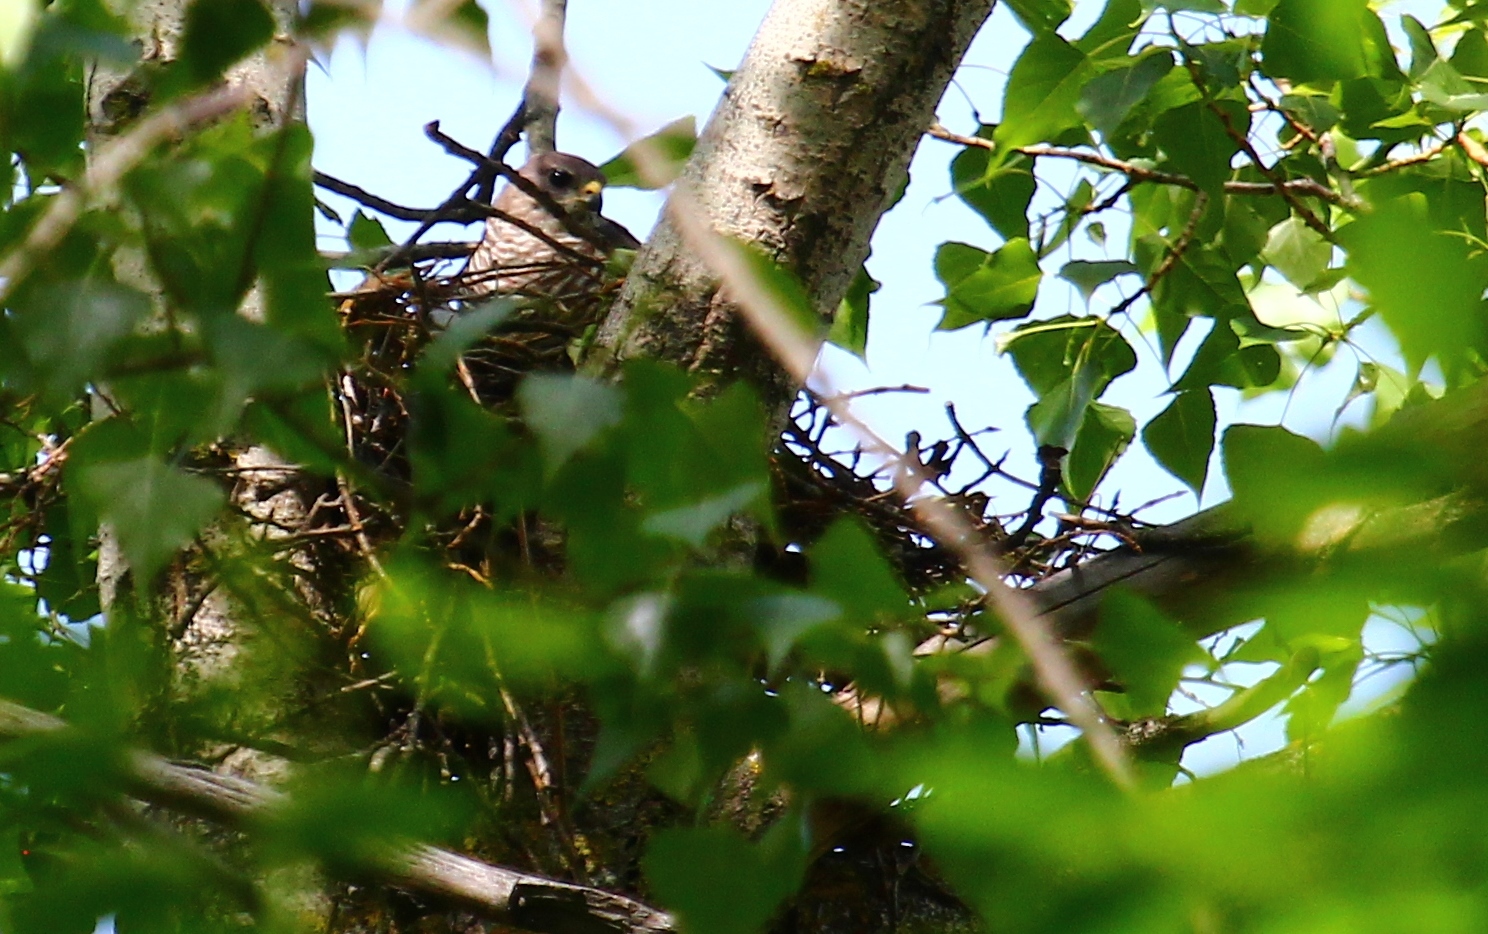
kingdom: Animalia
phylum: Chordata
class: Aves
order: Accipitriformes
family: Accipitridae
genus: Accipiter
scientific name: Accipiter brevipes
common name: Levant sparrowhawk
